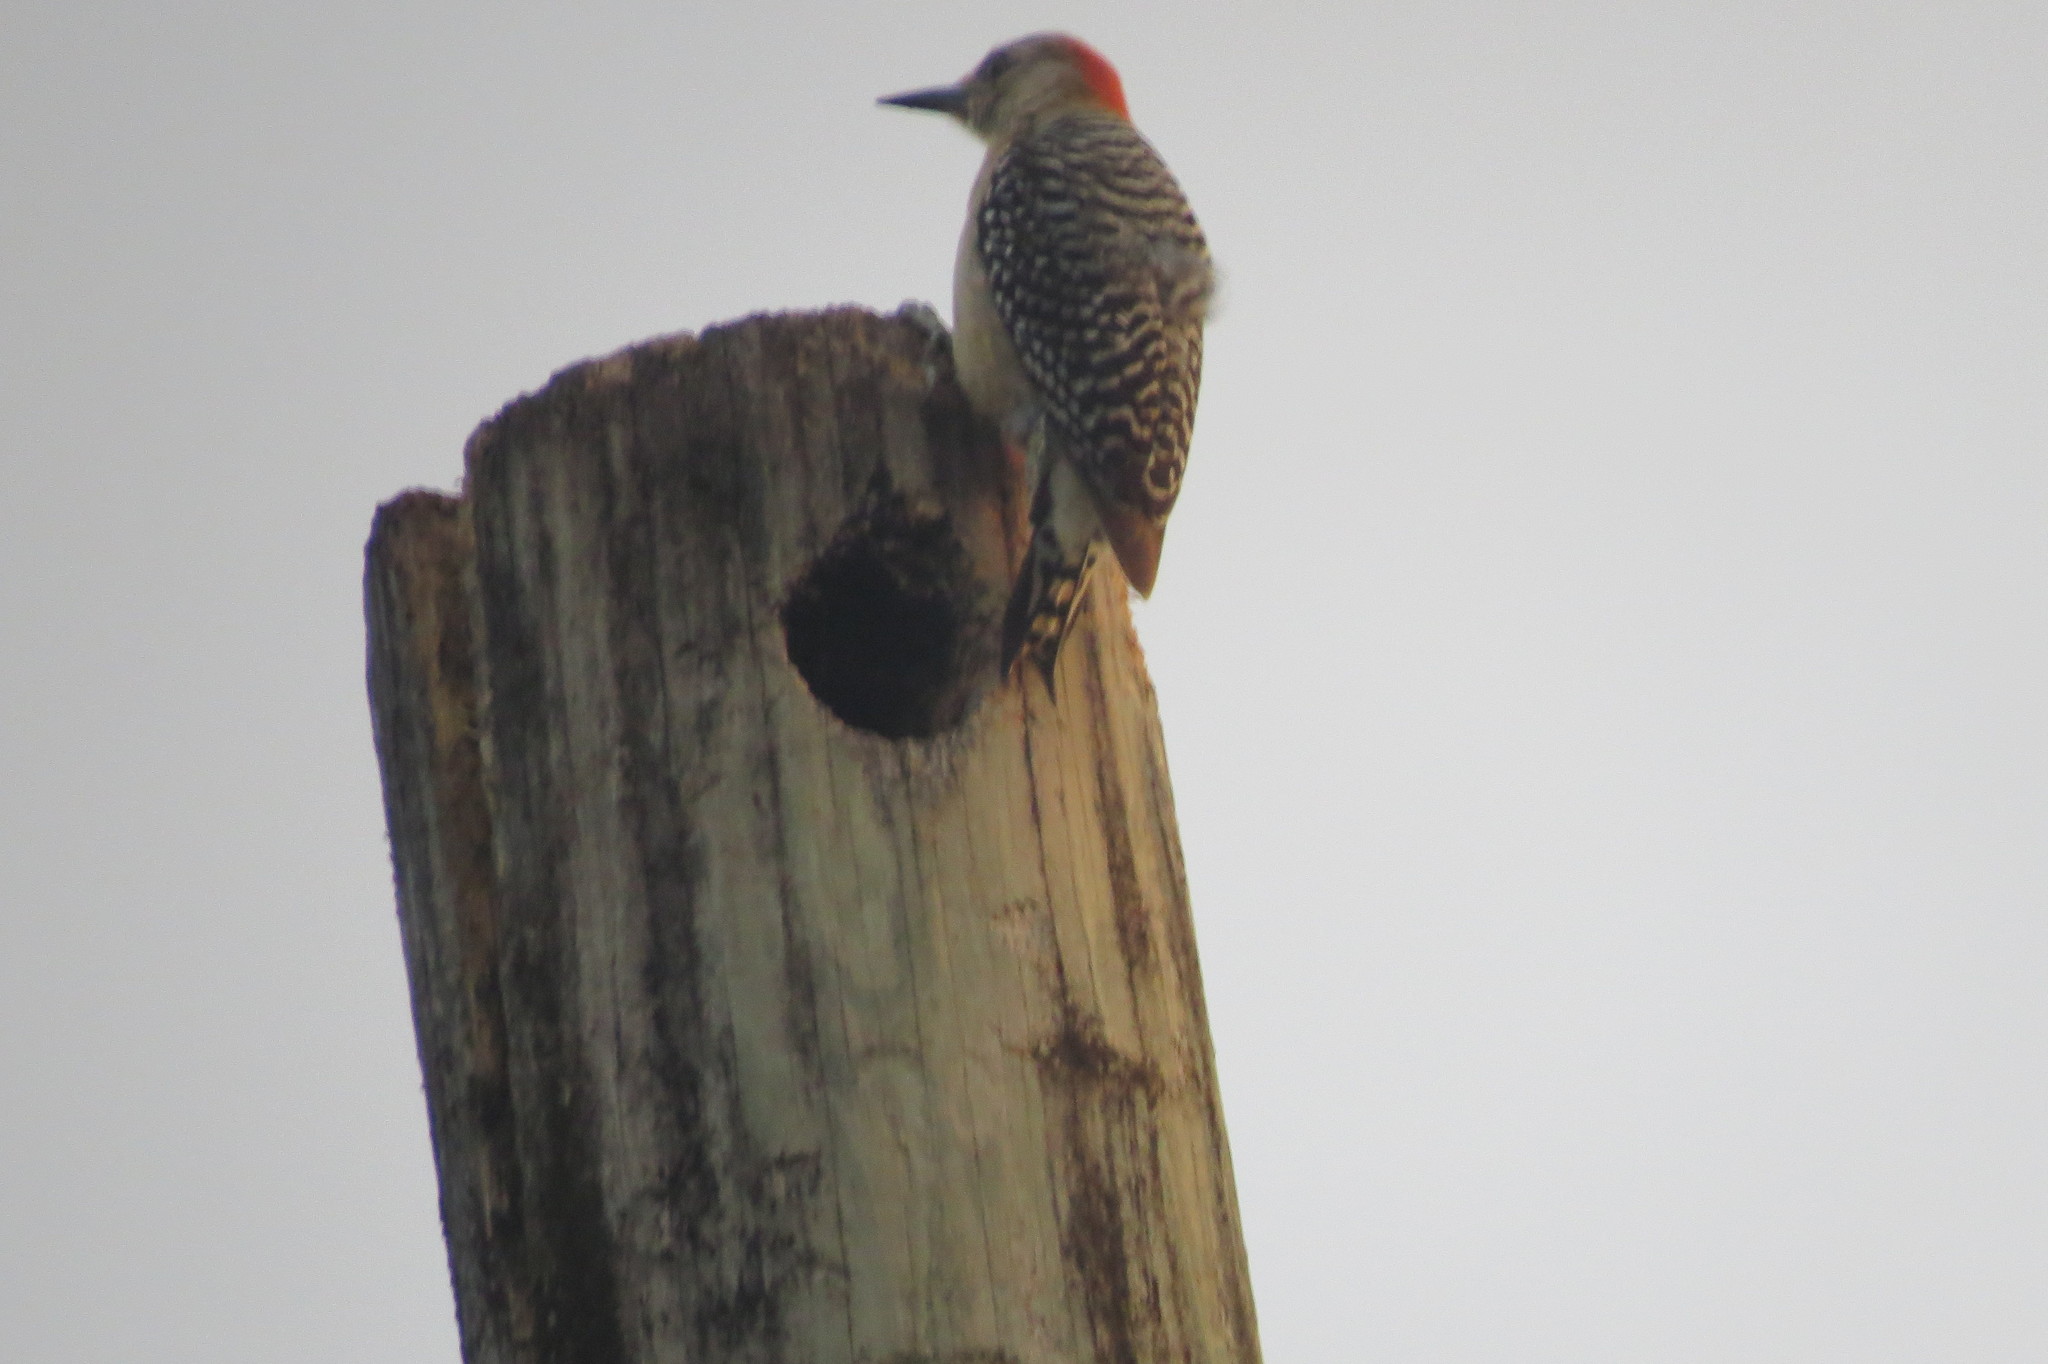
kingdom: Animalia
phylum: Chordata
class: Aves
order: Piciformes
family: Picidae
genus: Melanerpes
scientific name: Melanerpes rubricapillus
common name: Red-crowned woodpecker
